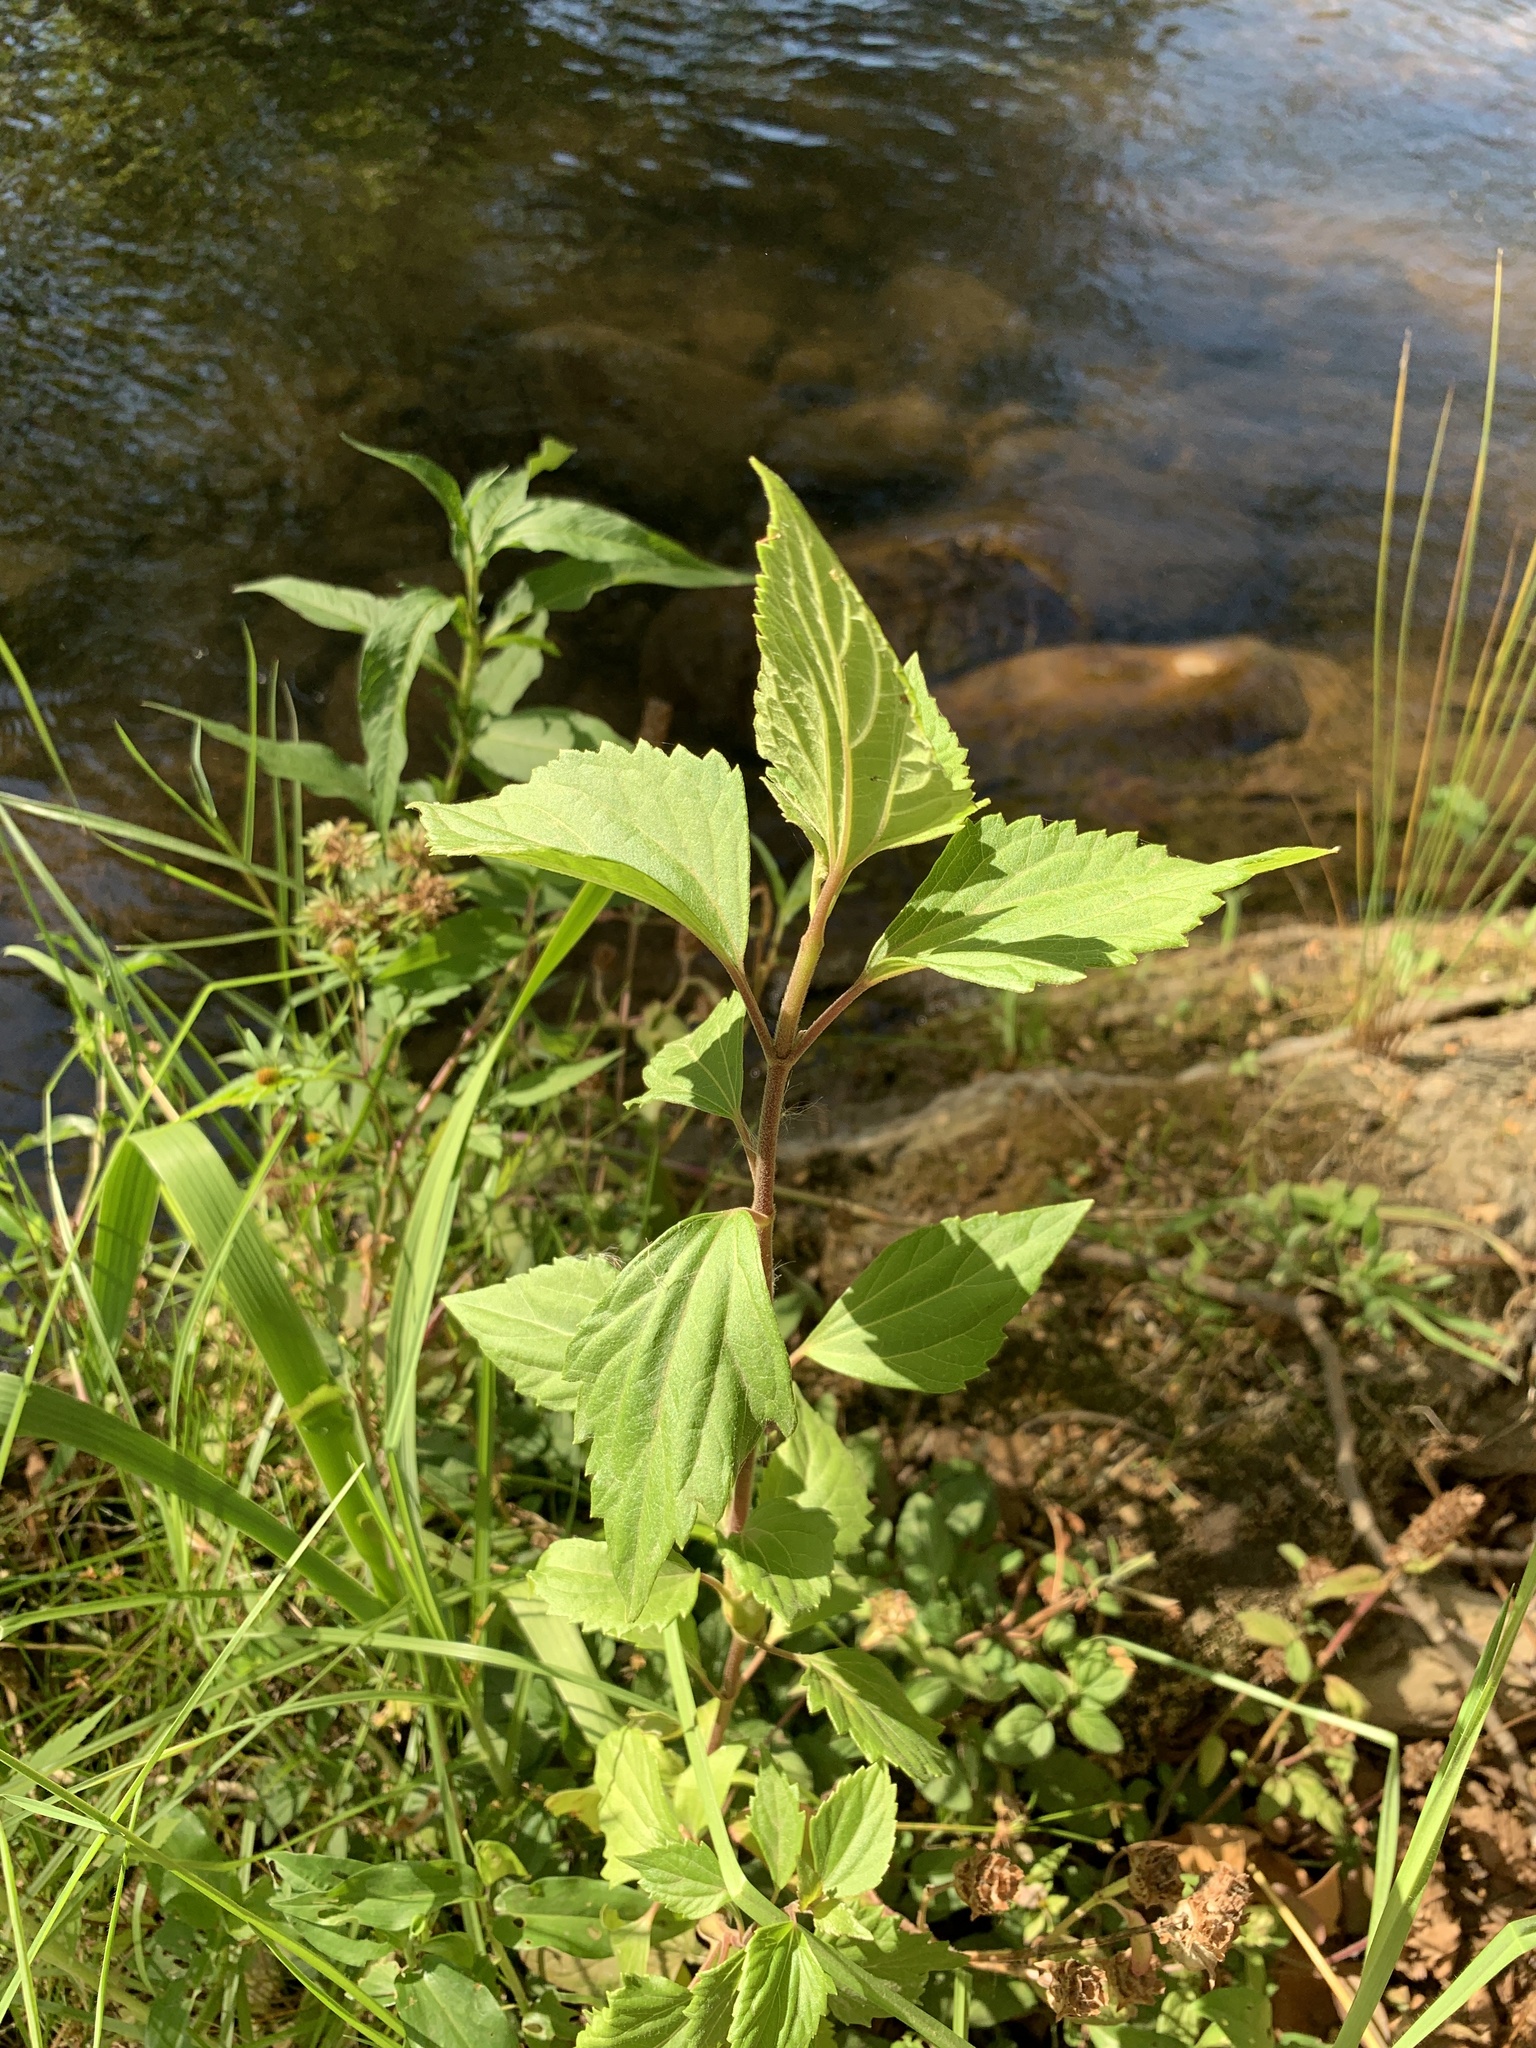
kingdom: Plantae
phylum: Tracheophyta
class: Magnoliopsida
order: Asterales
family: Asteraceae
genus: Ageratina
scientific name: Ageratina adenophora
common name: Sticky snakeroot
